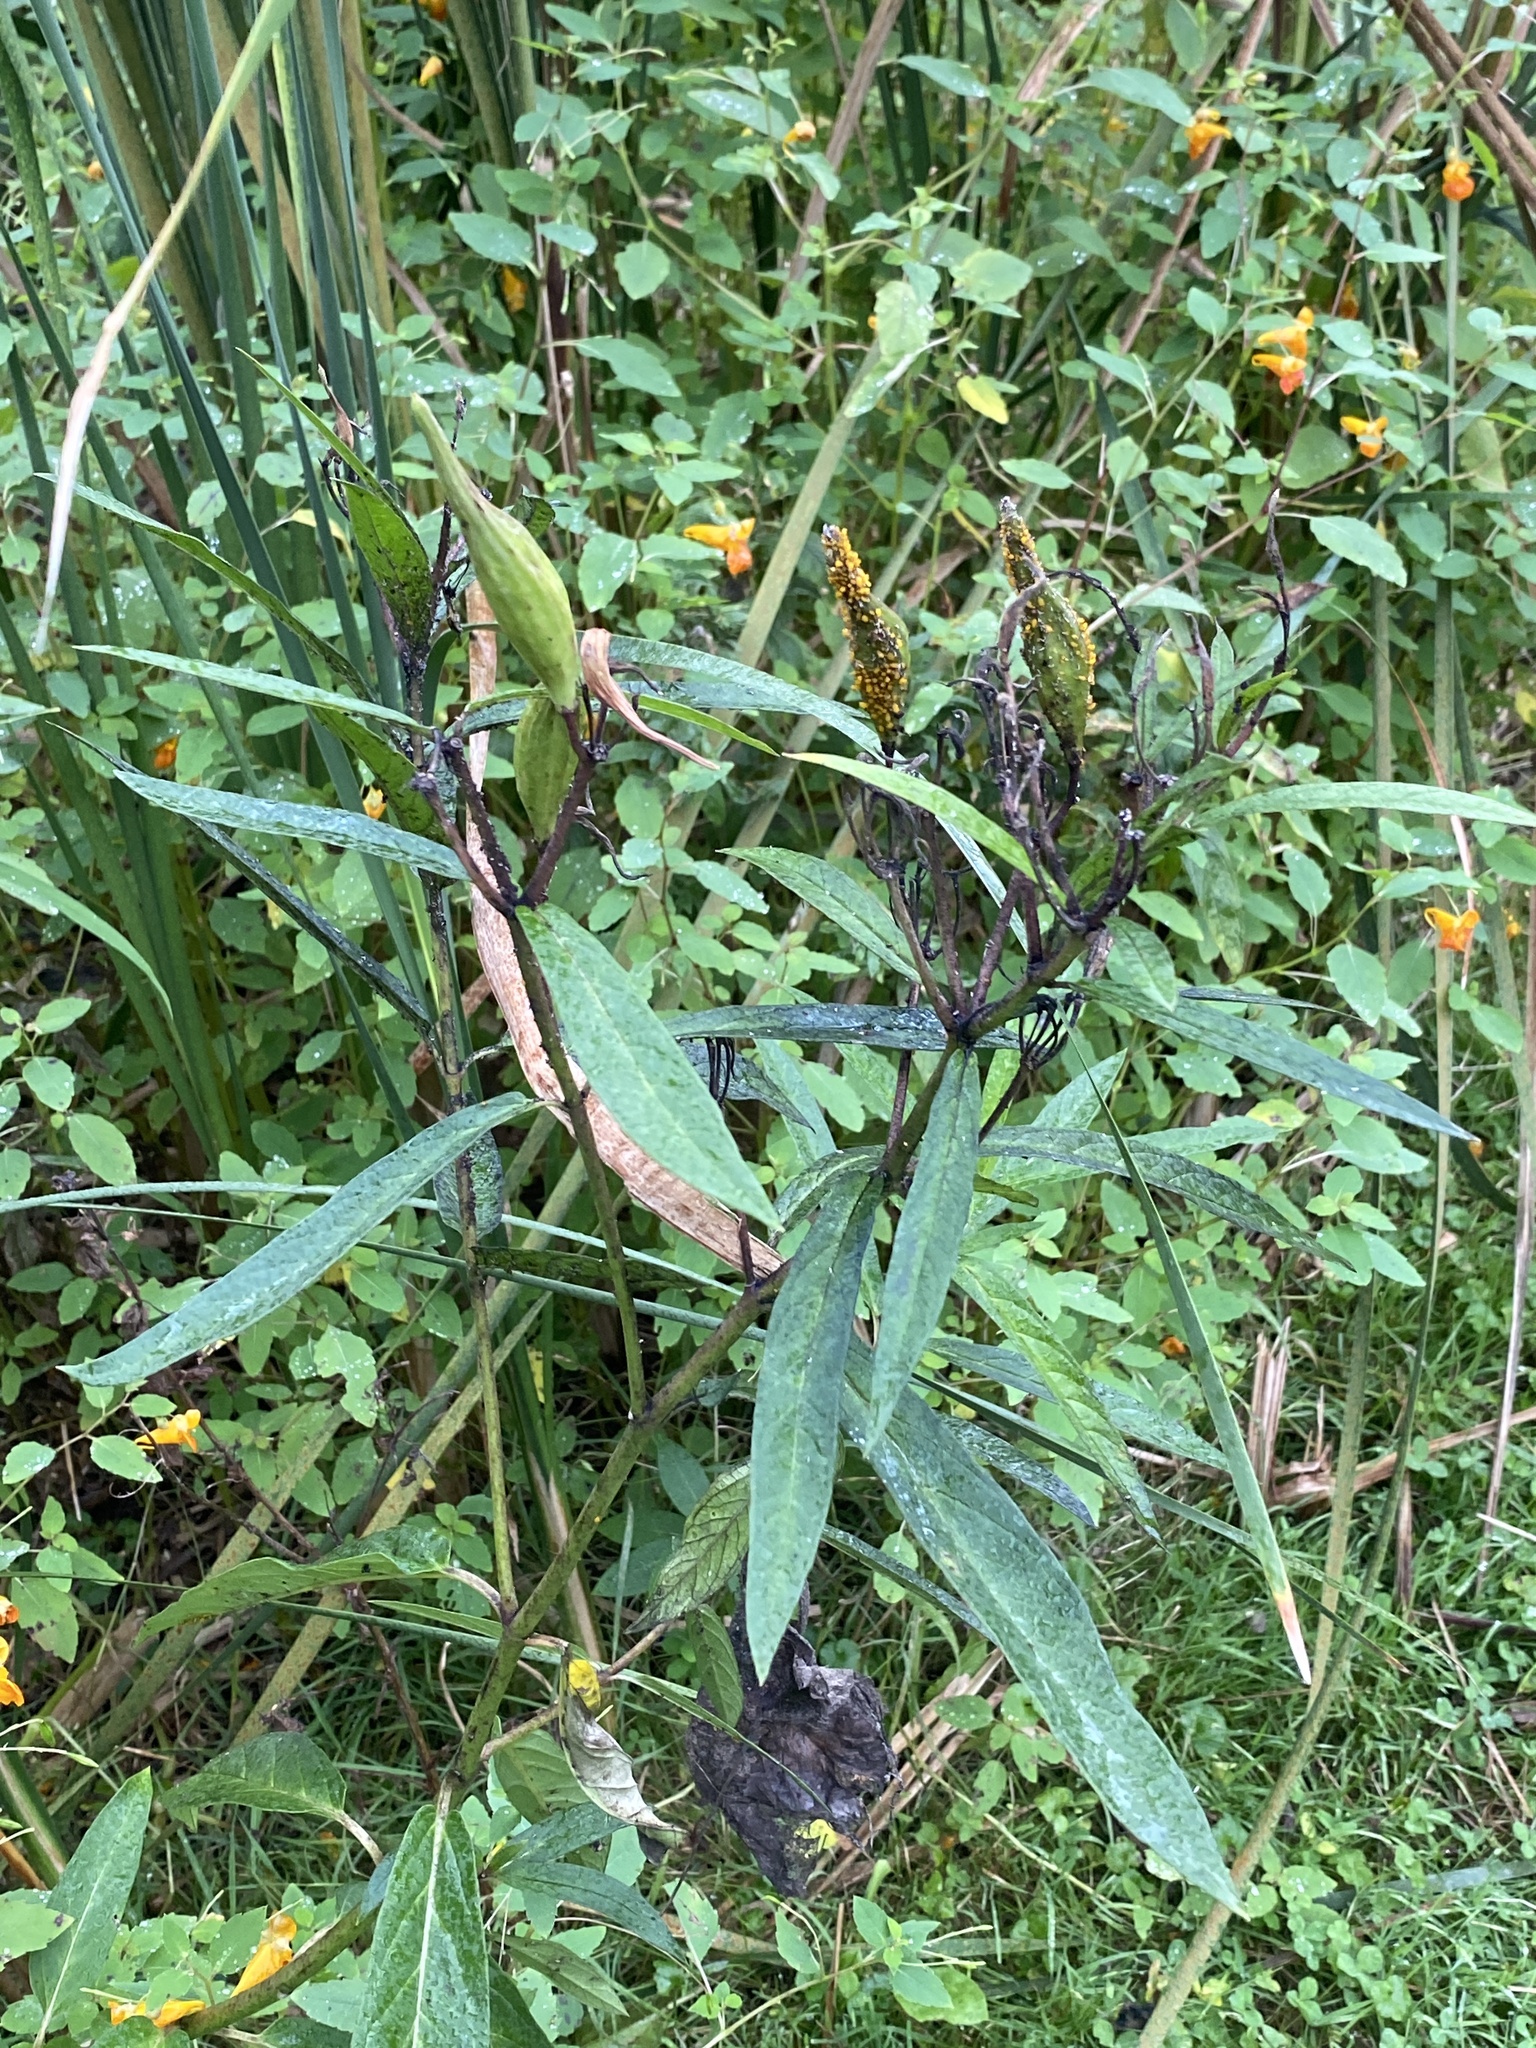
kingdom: Plantae
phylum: Tracheophyta
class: Magnoliopsida
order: Gentianales
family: Apocynaceae
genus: Asclepias
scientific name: Asclepias incarnata
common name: Swamp milkweed
